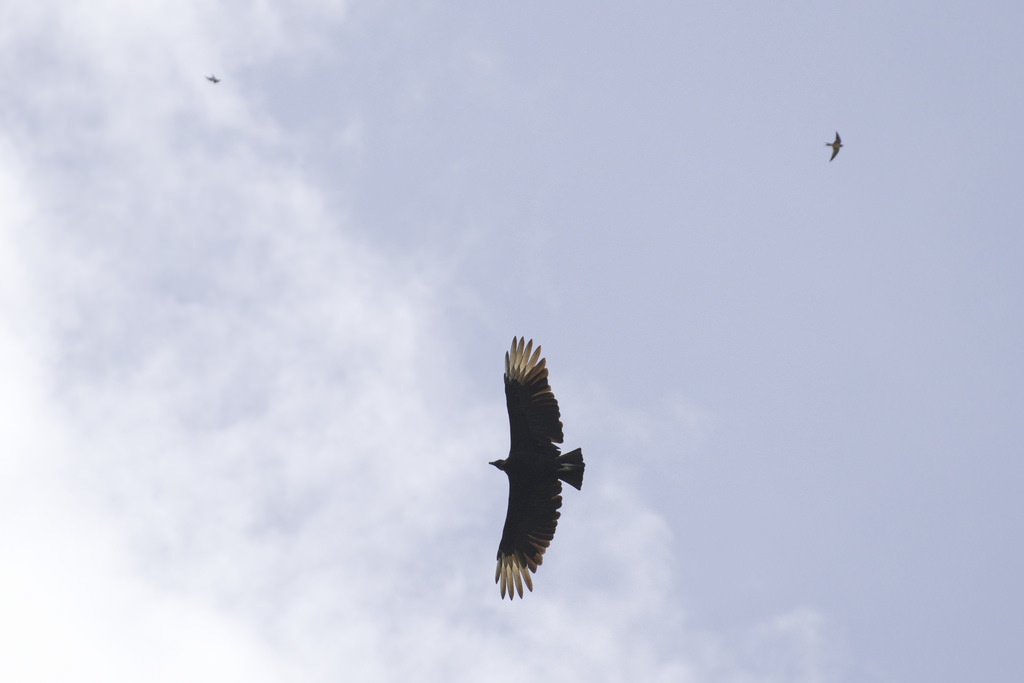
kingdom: Animalia
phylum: Chordata
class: Aves
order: Accipitriformes
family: Cathartidae
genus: Coragyps
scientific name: Coragyps atratus
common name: Black vulture
